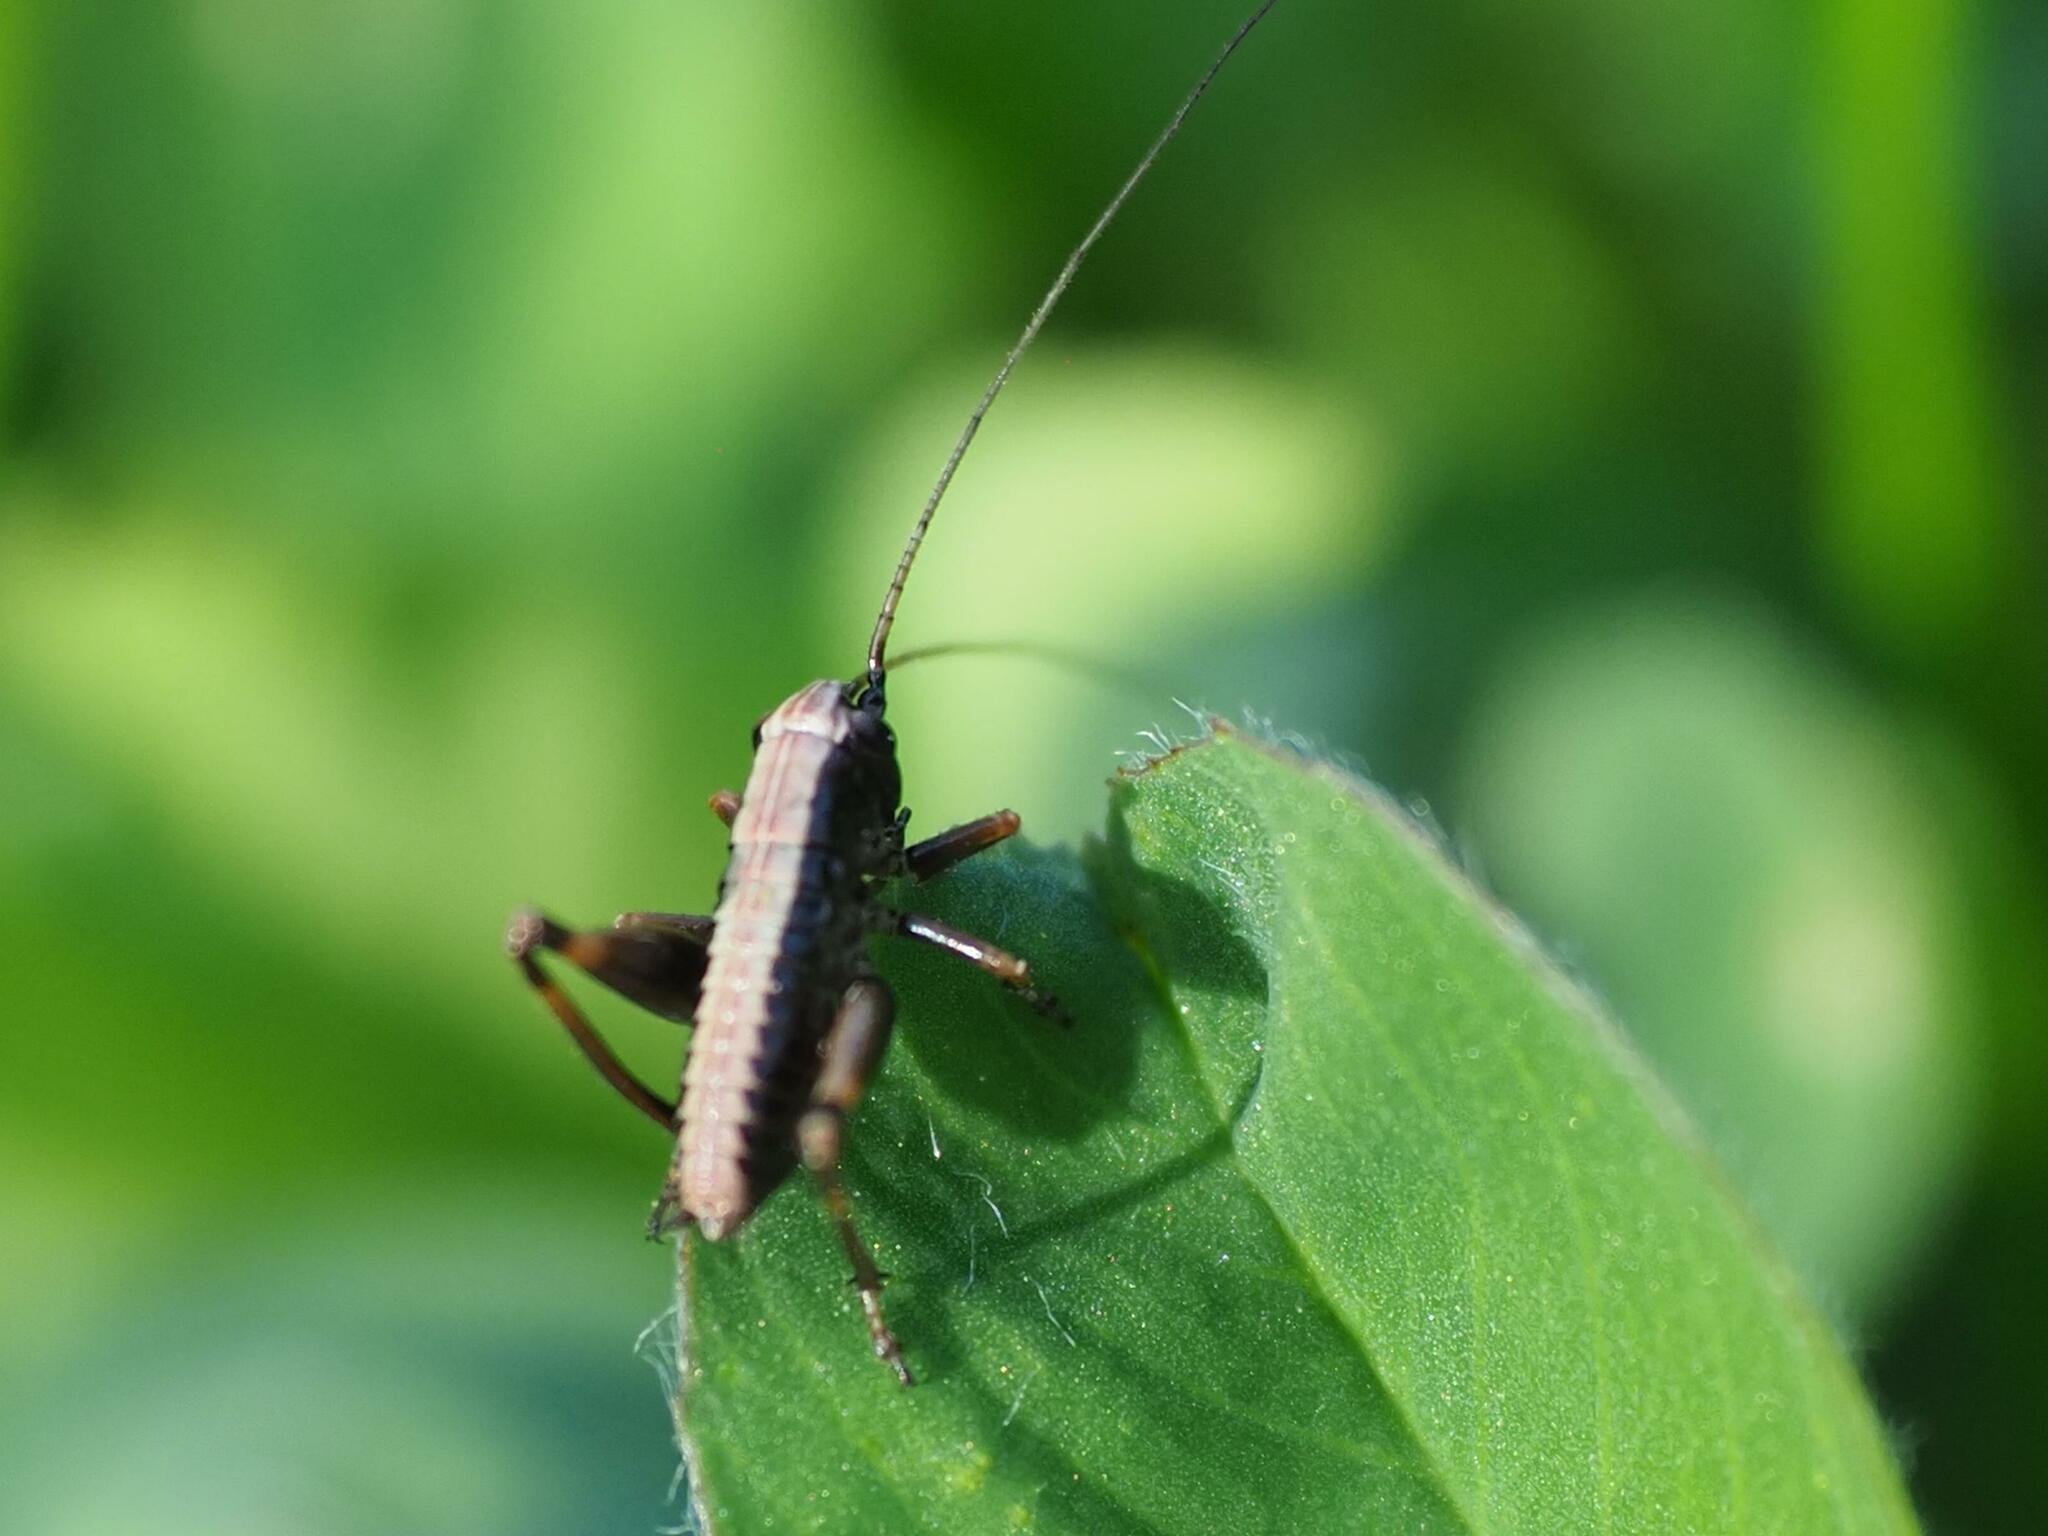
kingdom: Animalia
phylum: Arthropoda
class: Insecta
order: Orthoptera
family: Tettigoniidae
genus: Pholidoptera
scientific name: Pholidoptera griseoaptera
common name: Dark bush-cricket
